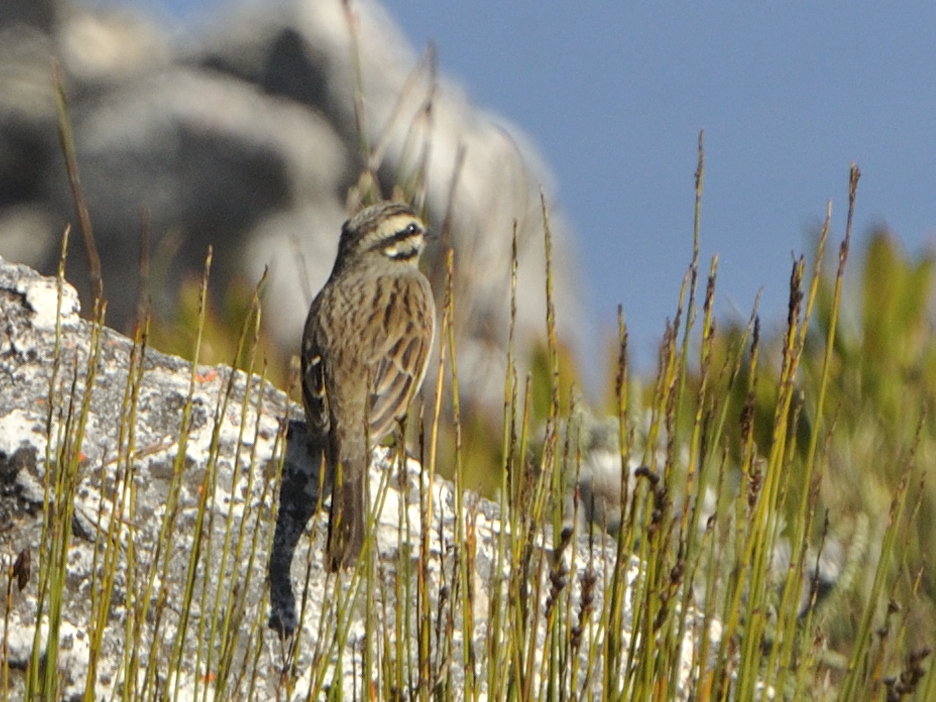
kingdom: Animalia
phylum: Chordata
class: Aves
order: Passeriformes
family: Emberizidae
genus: Emberiza
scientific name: Emberiza capensis
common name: Cape bunting
